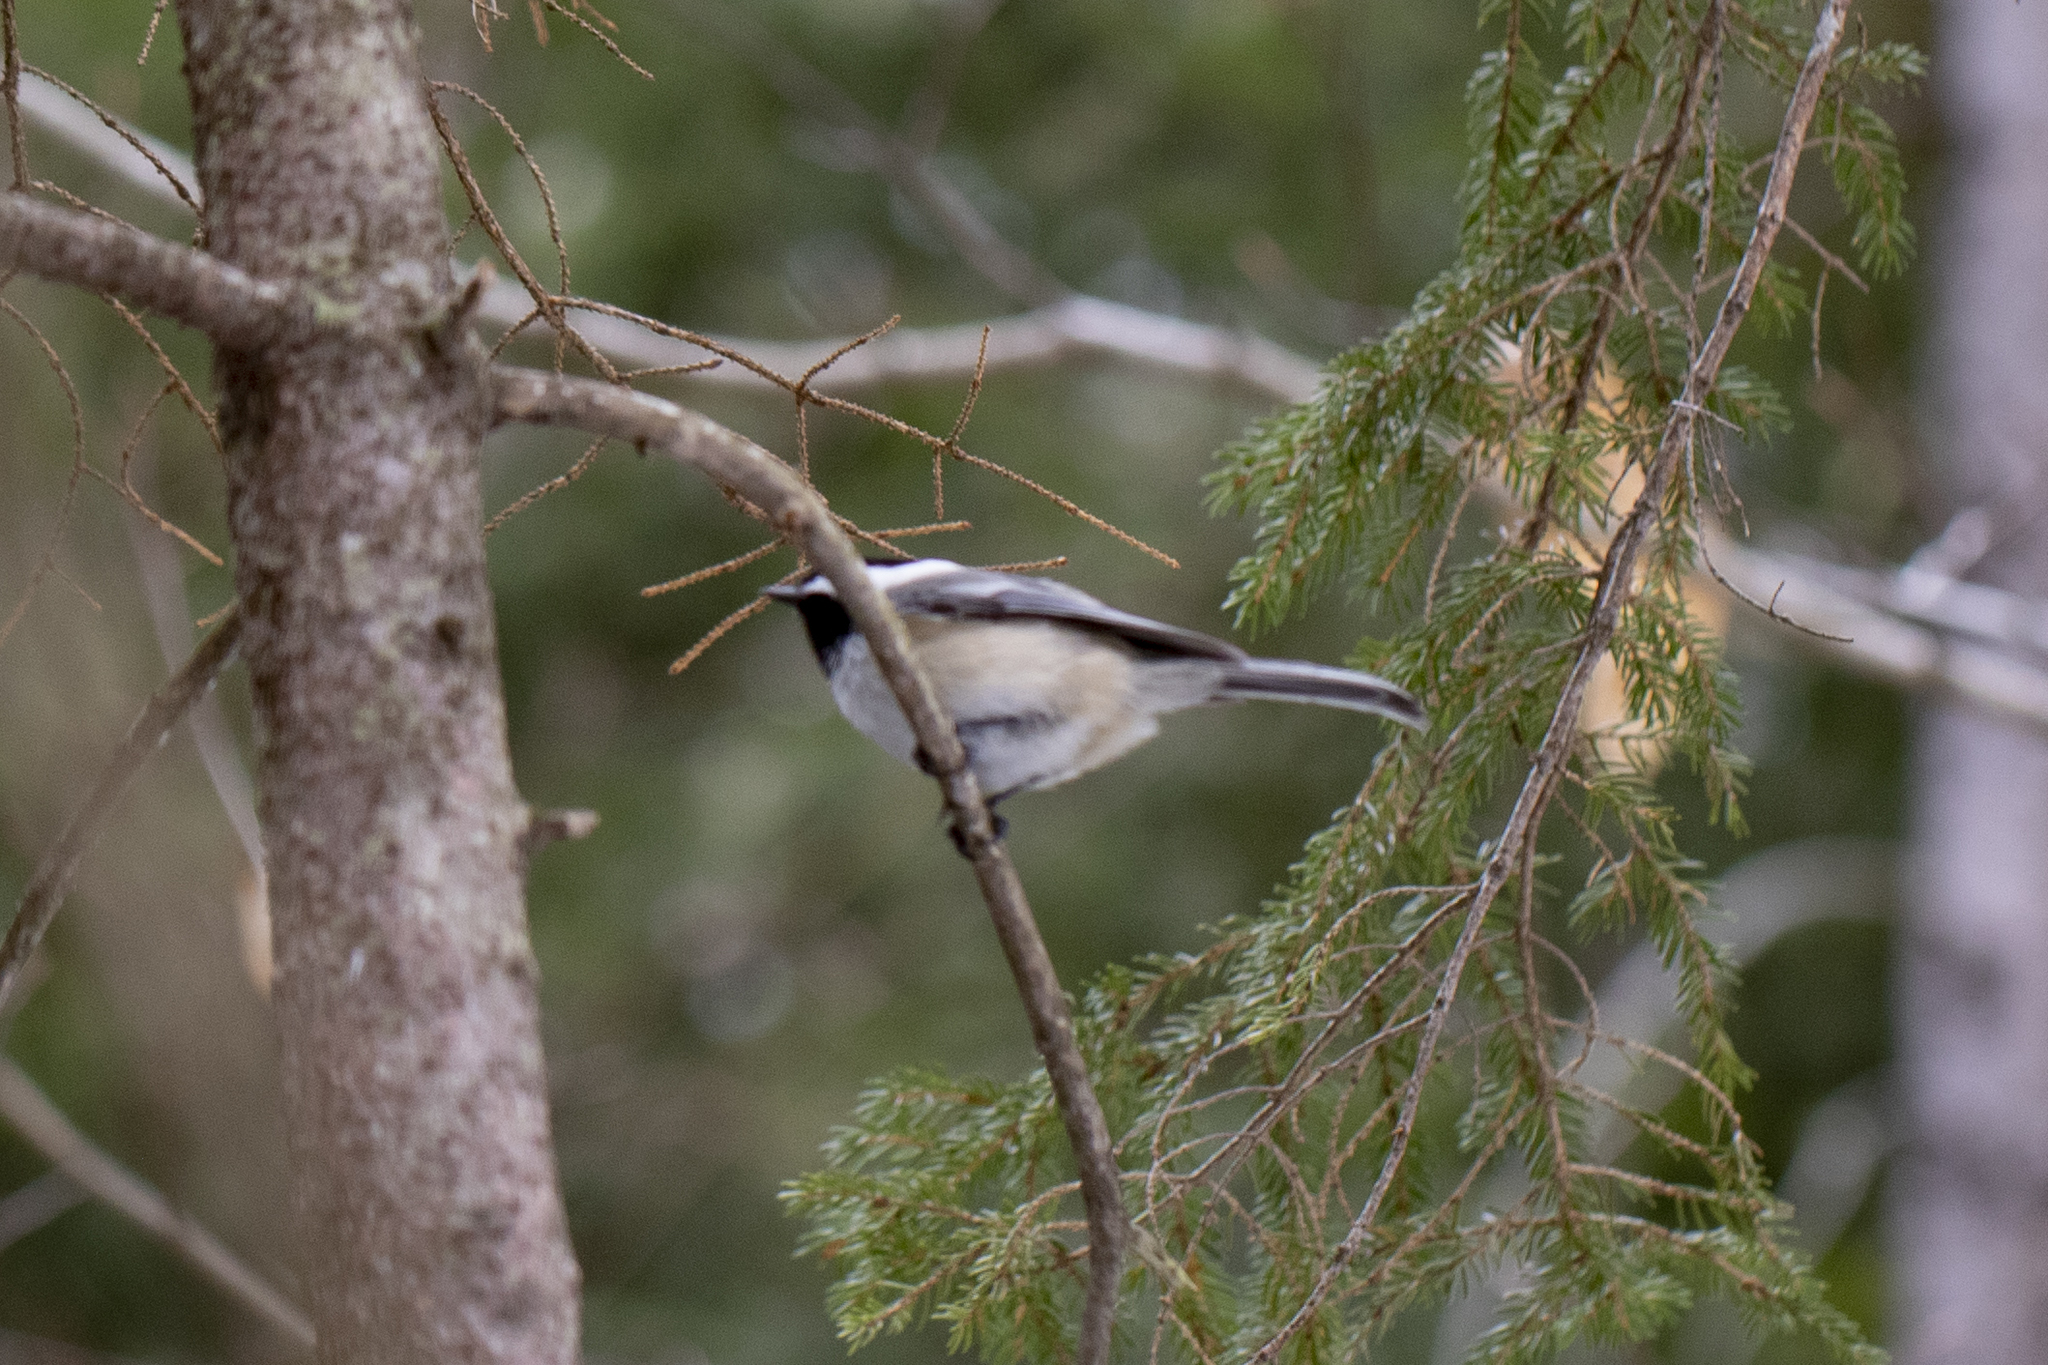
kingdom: Animalia
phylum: Chordata
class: Aves
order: Passeriformes
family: Paridae
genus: Poecile
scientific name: Poecile atricapillus
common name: Black-capped chickadee
